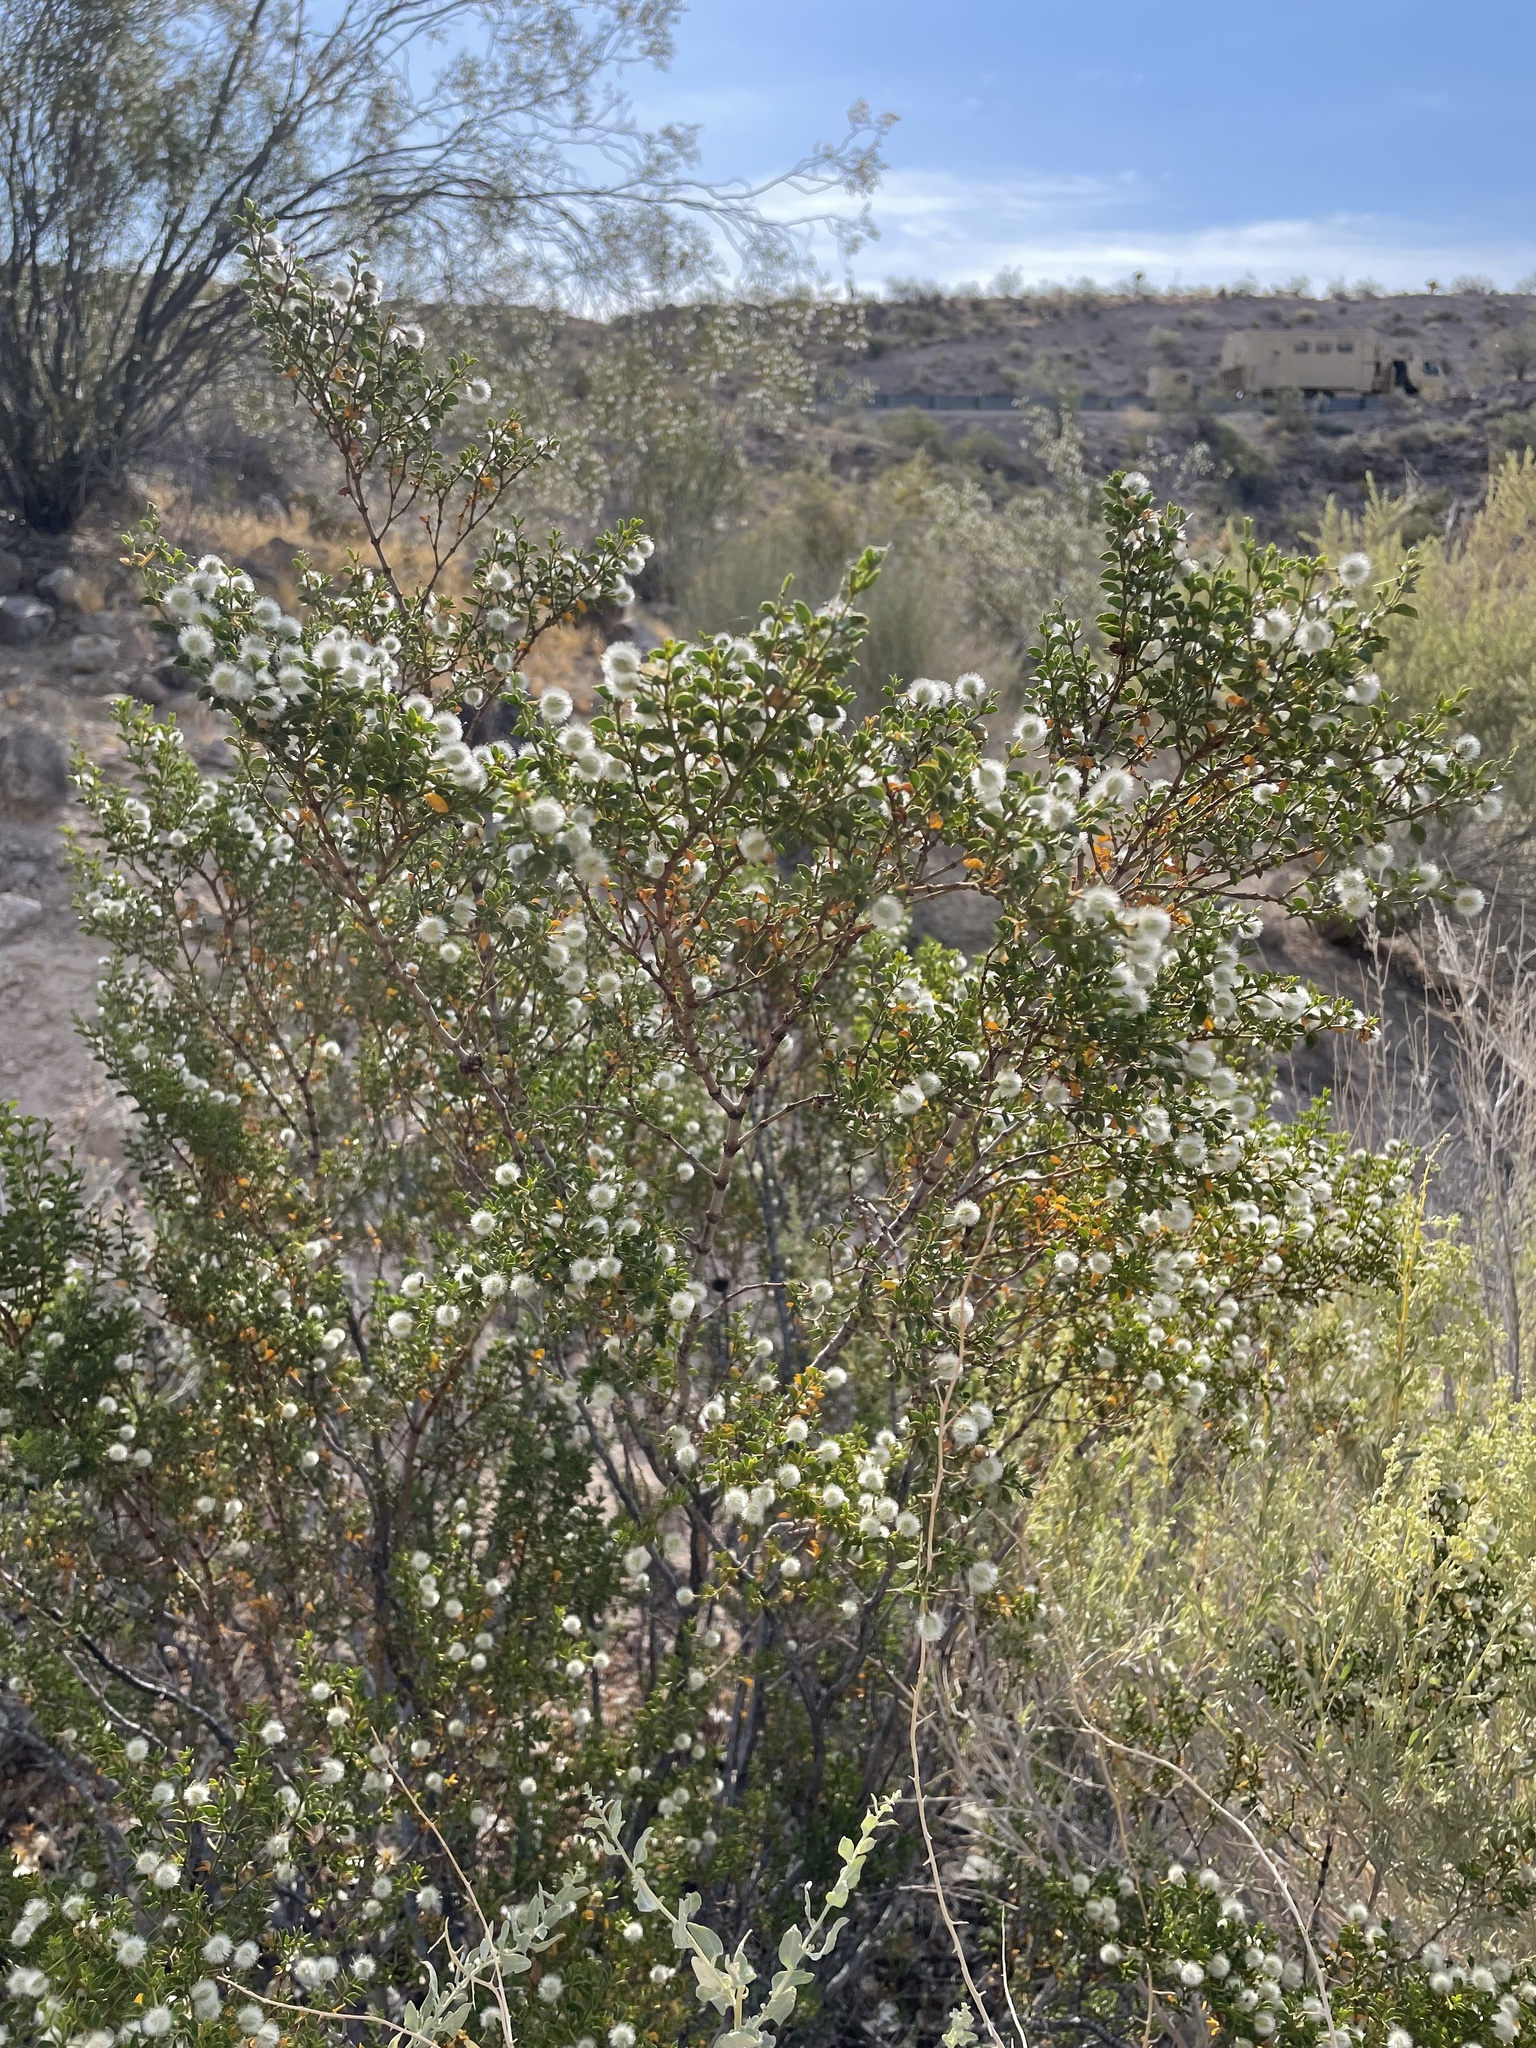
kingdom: Plantae
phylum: Tracheophyta
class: Magnoliopsida
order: Zygophyllales
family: Zygophyllaceae
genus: Larrea
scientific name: Larrea tridentata
